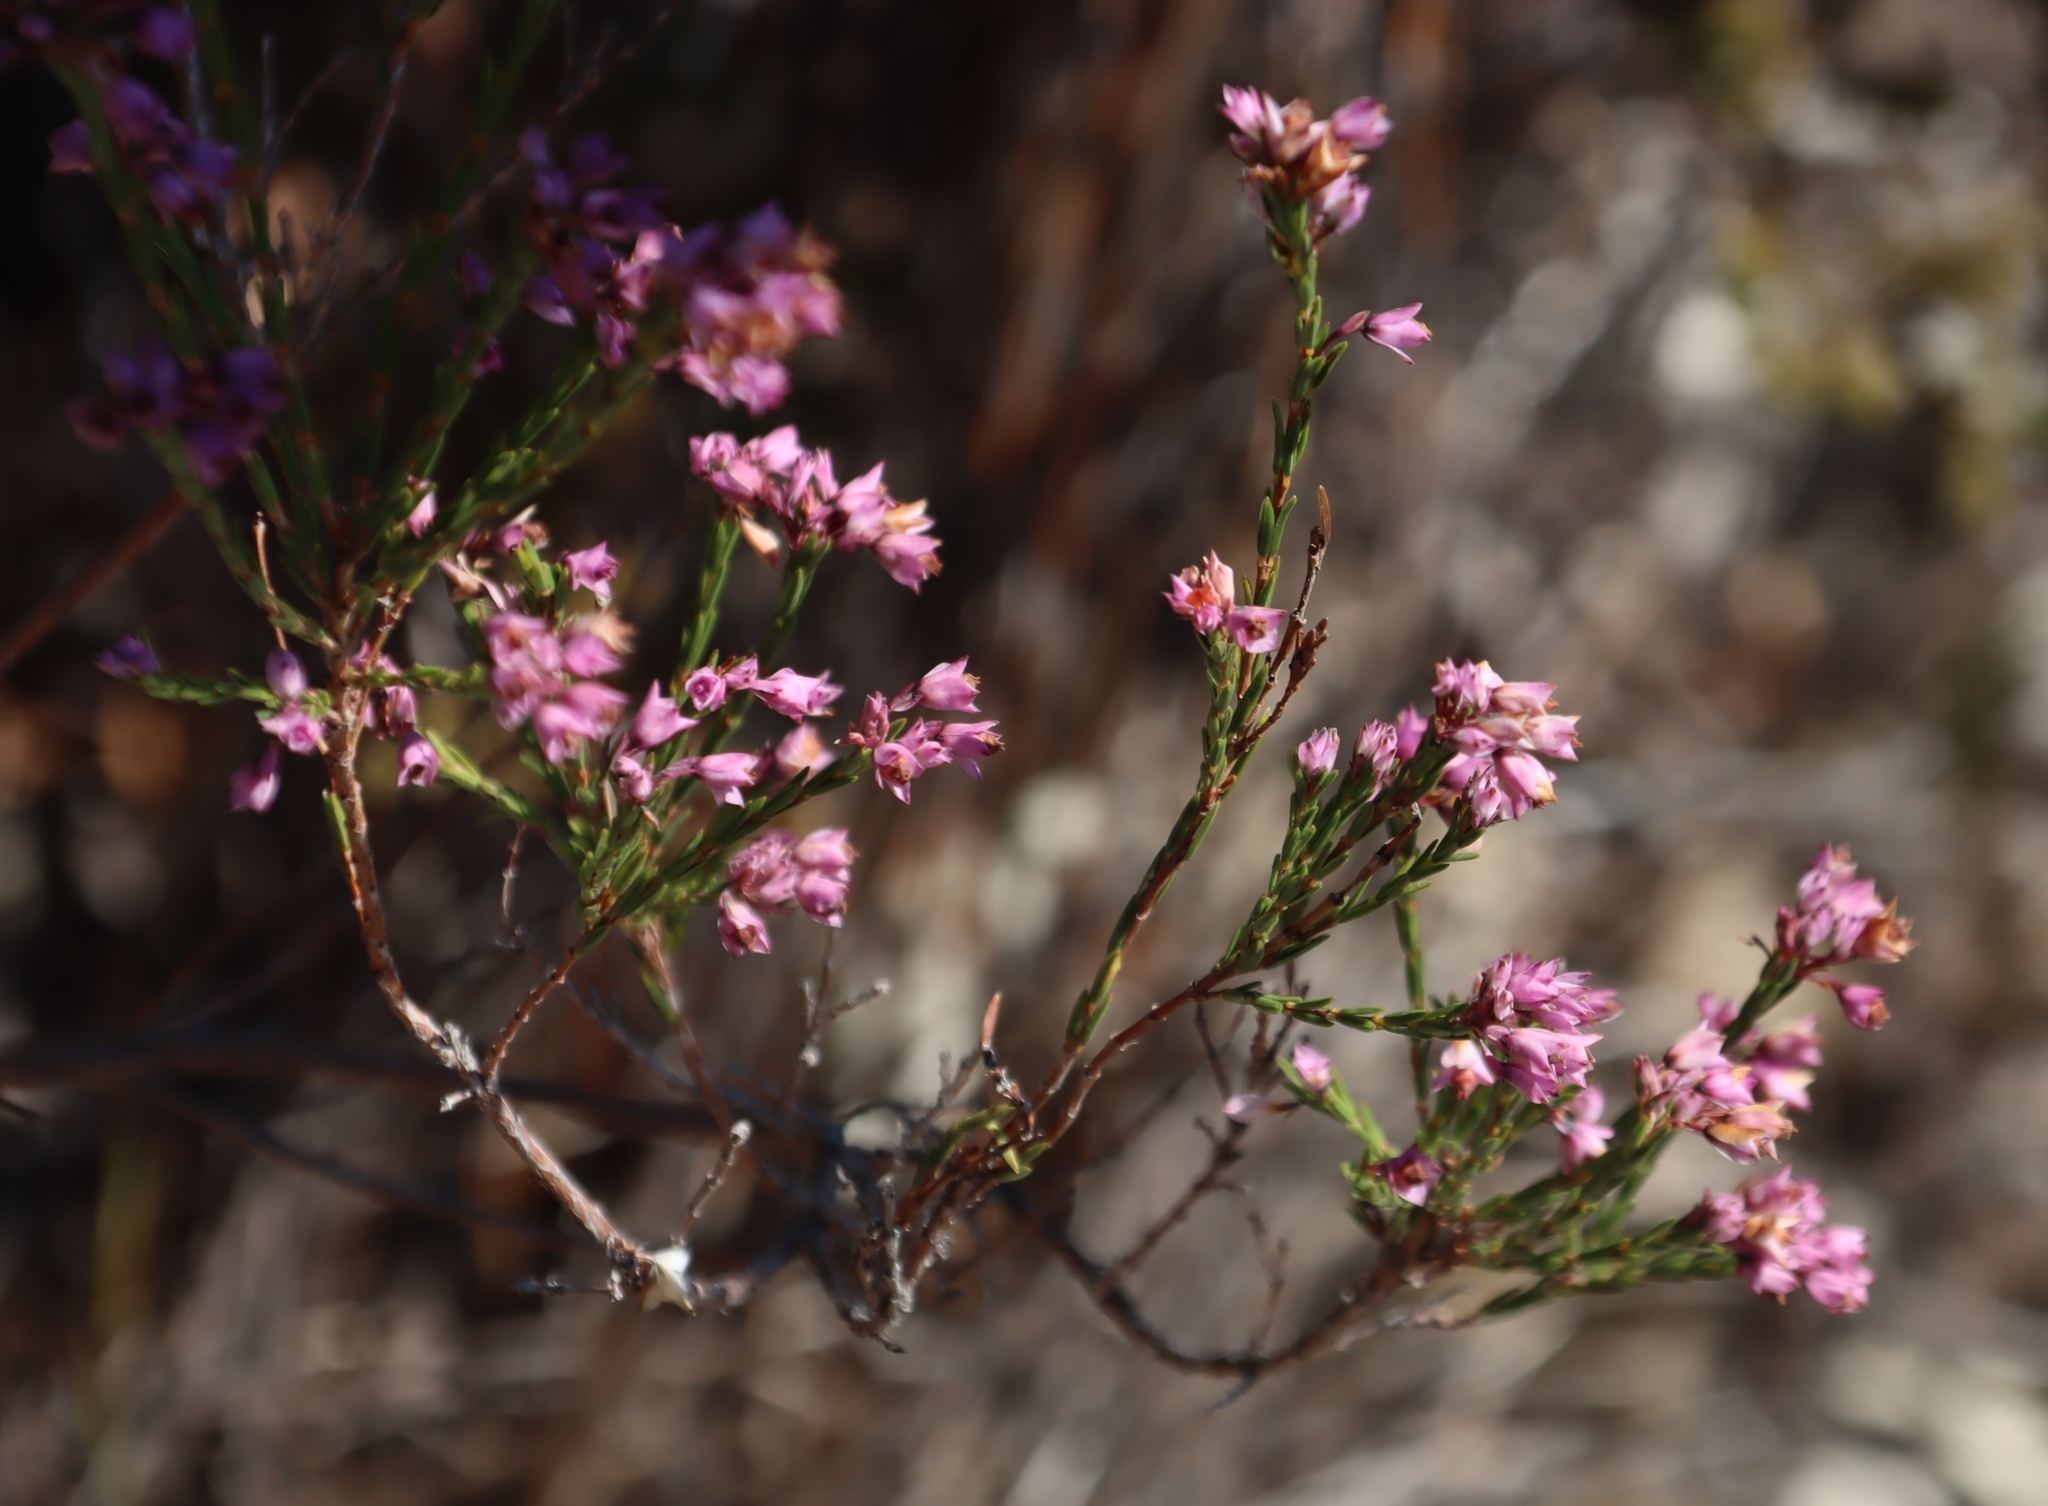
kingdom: Plantae
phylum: Tracheophyta
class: Magnoliopsida
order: Ericales
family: Ericaceae
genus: Erica
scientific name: Erica corifolia
